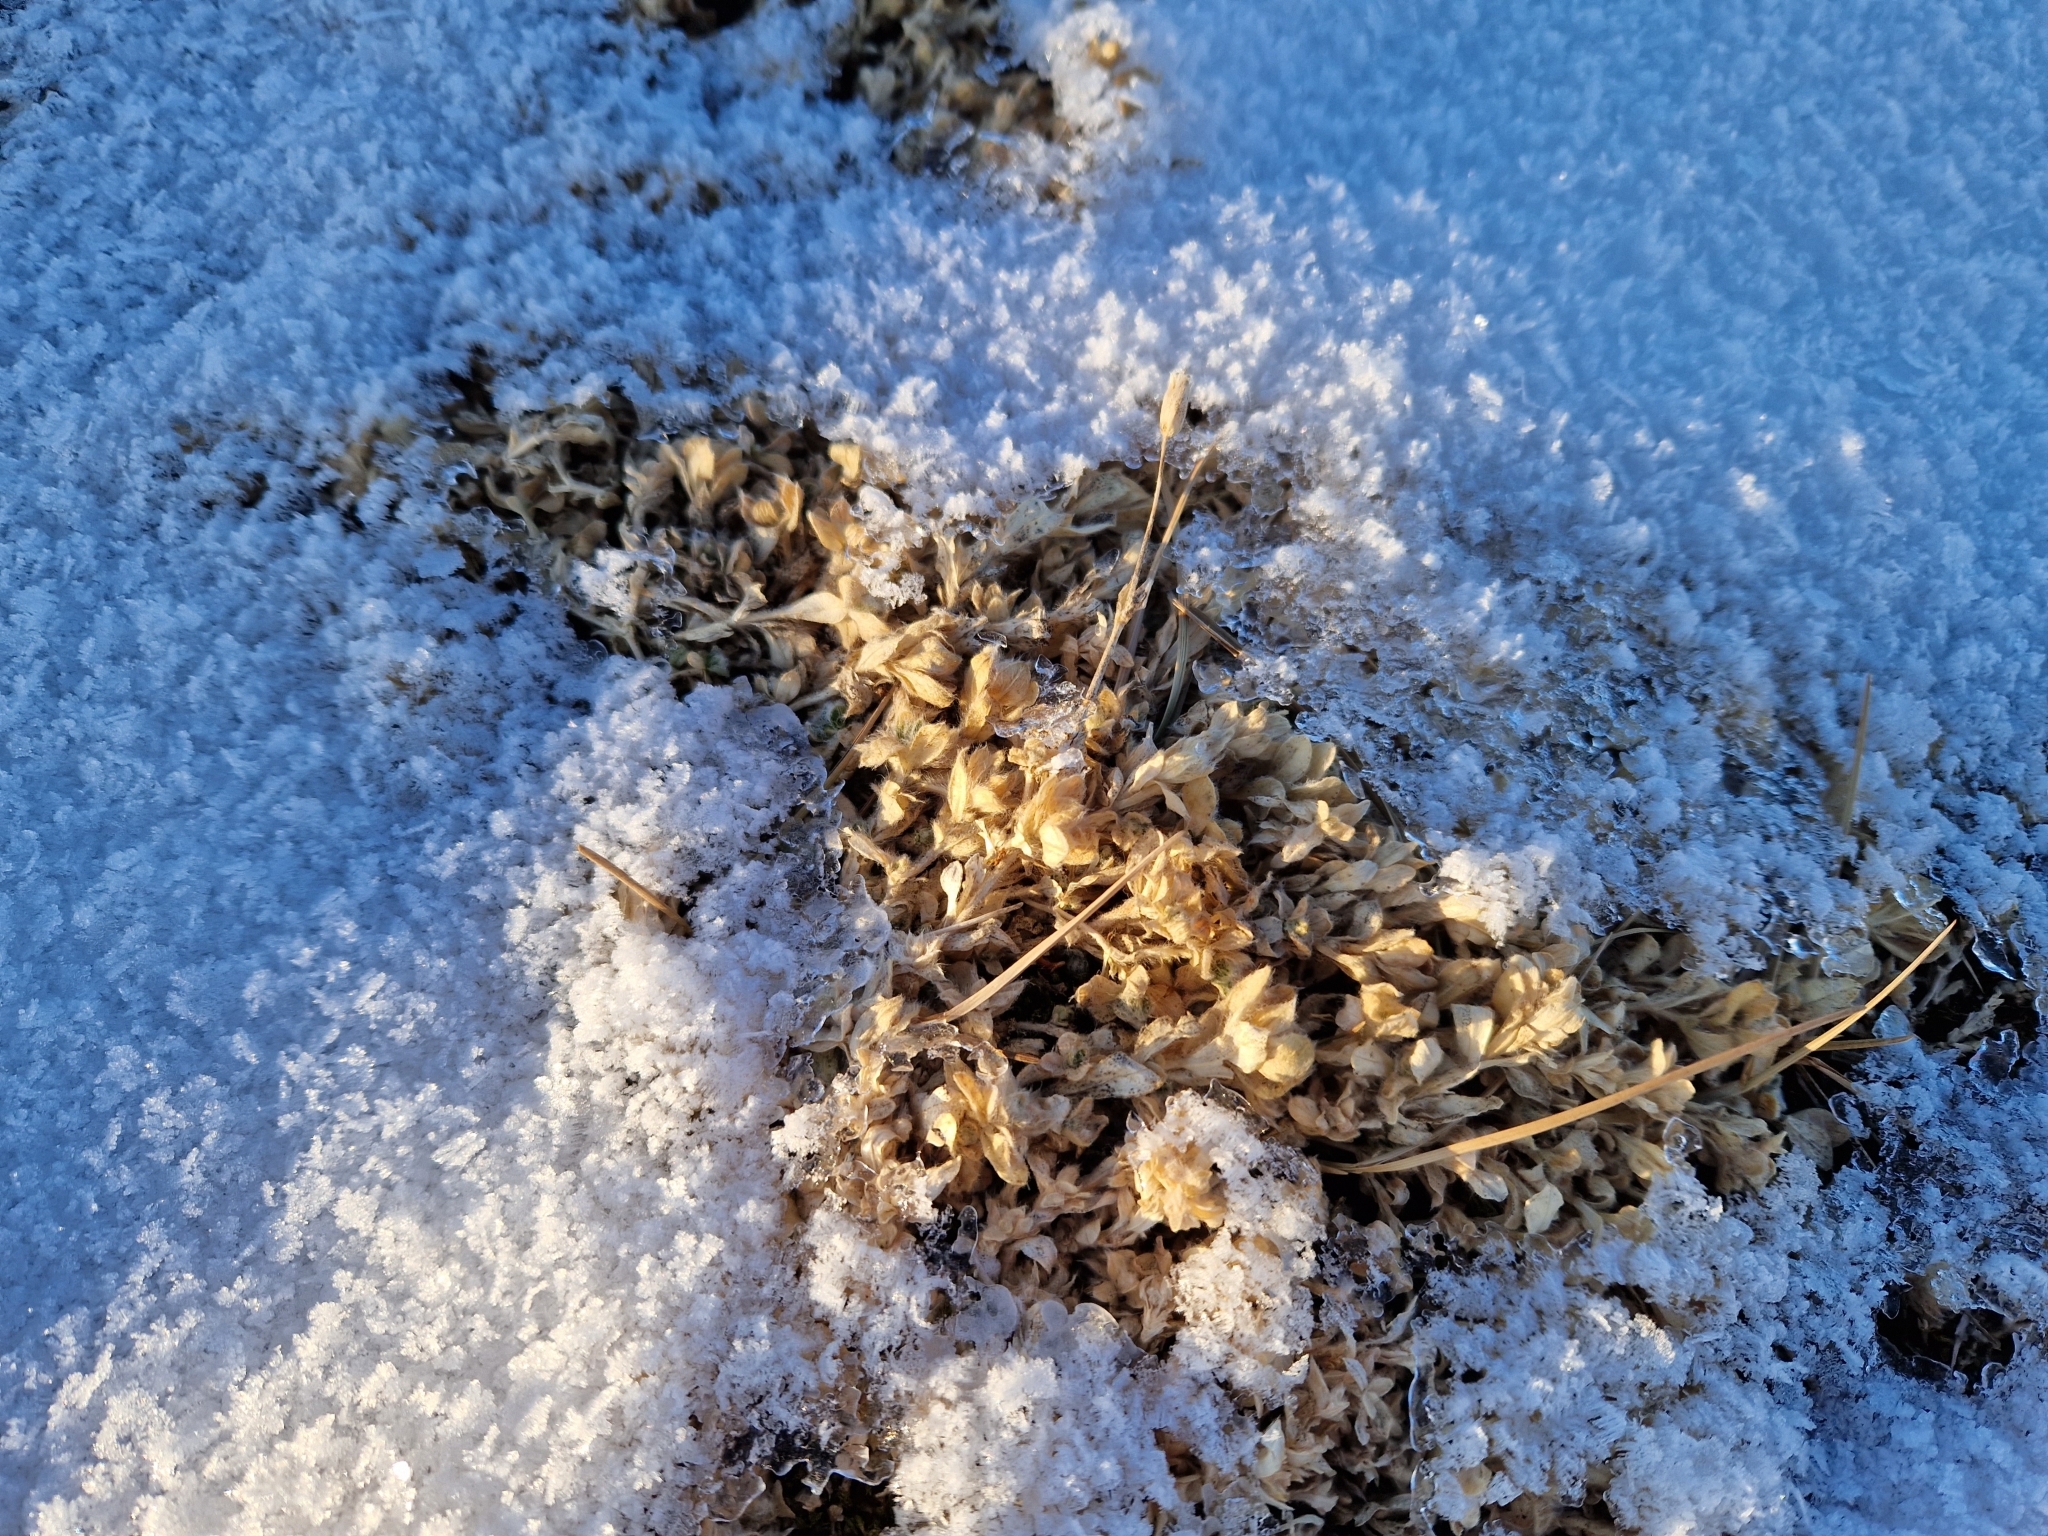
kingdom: Plantae
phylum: Tracheophyta
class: Magnoliopsida
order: Caryophyllales
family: Caryophyllaceae
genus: Cerastium
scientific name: Cerastium alpinum
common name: Alpine mouse-ear
